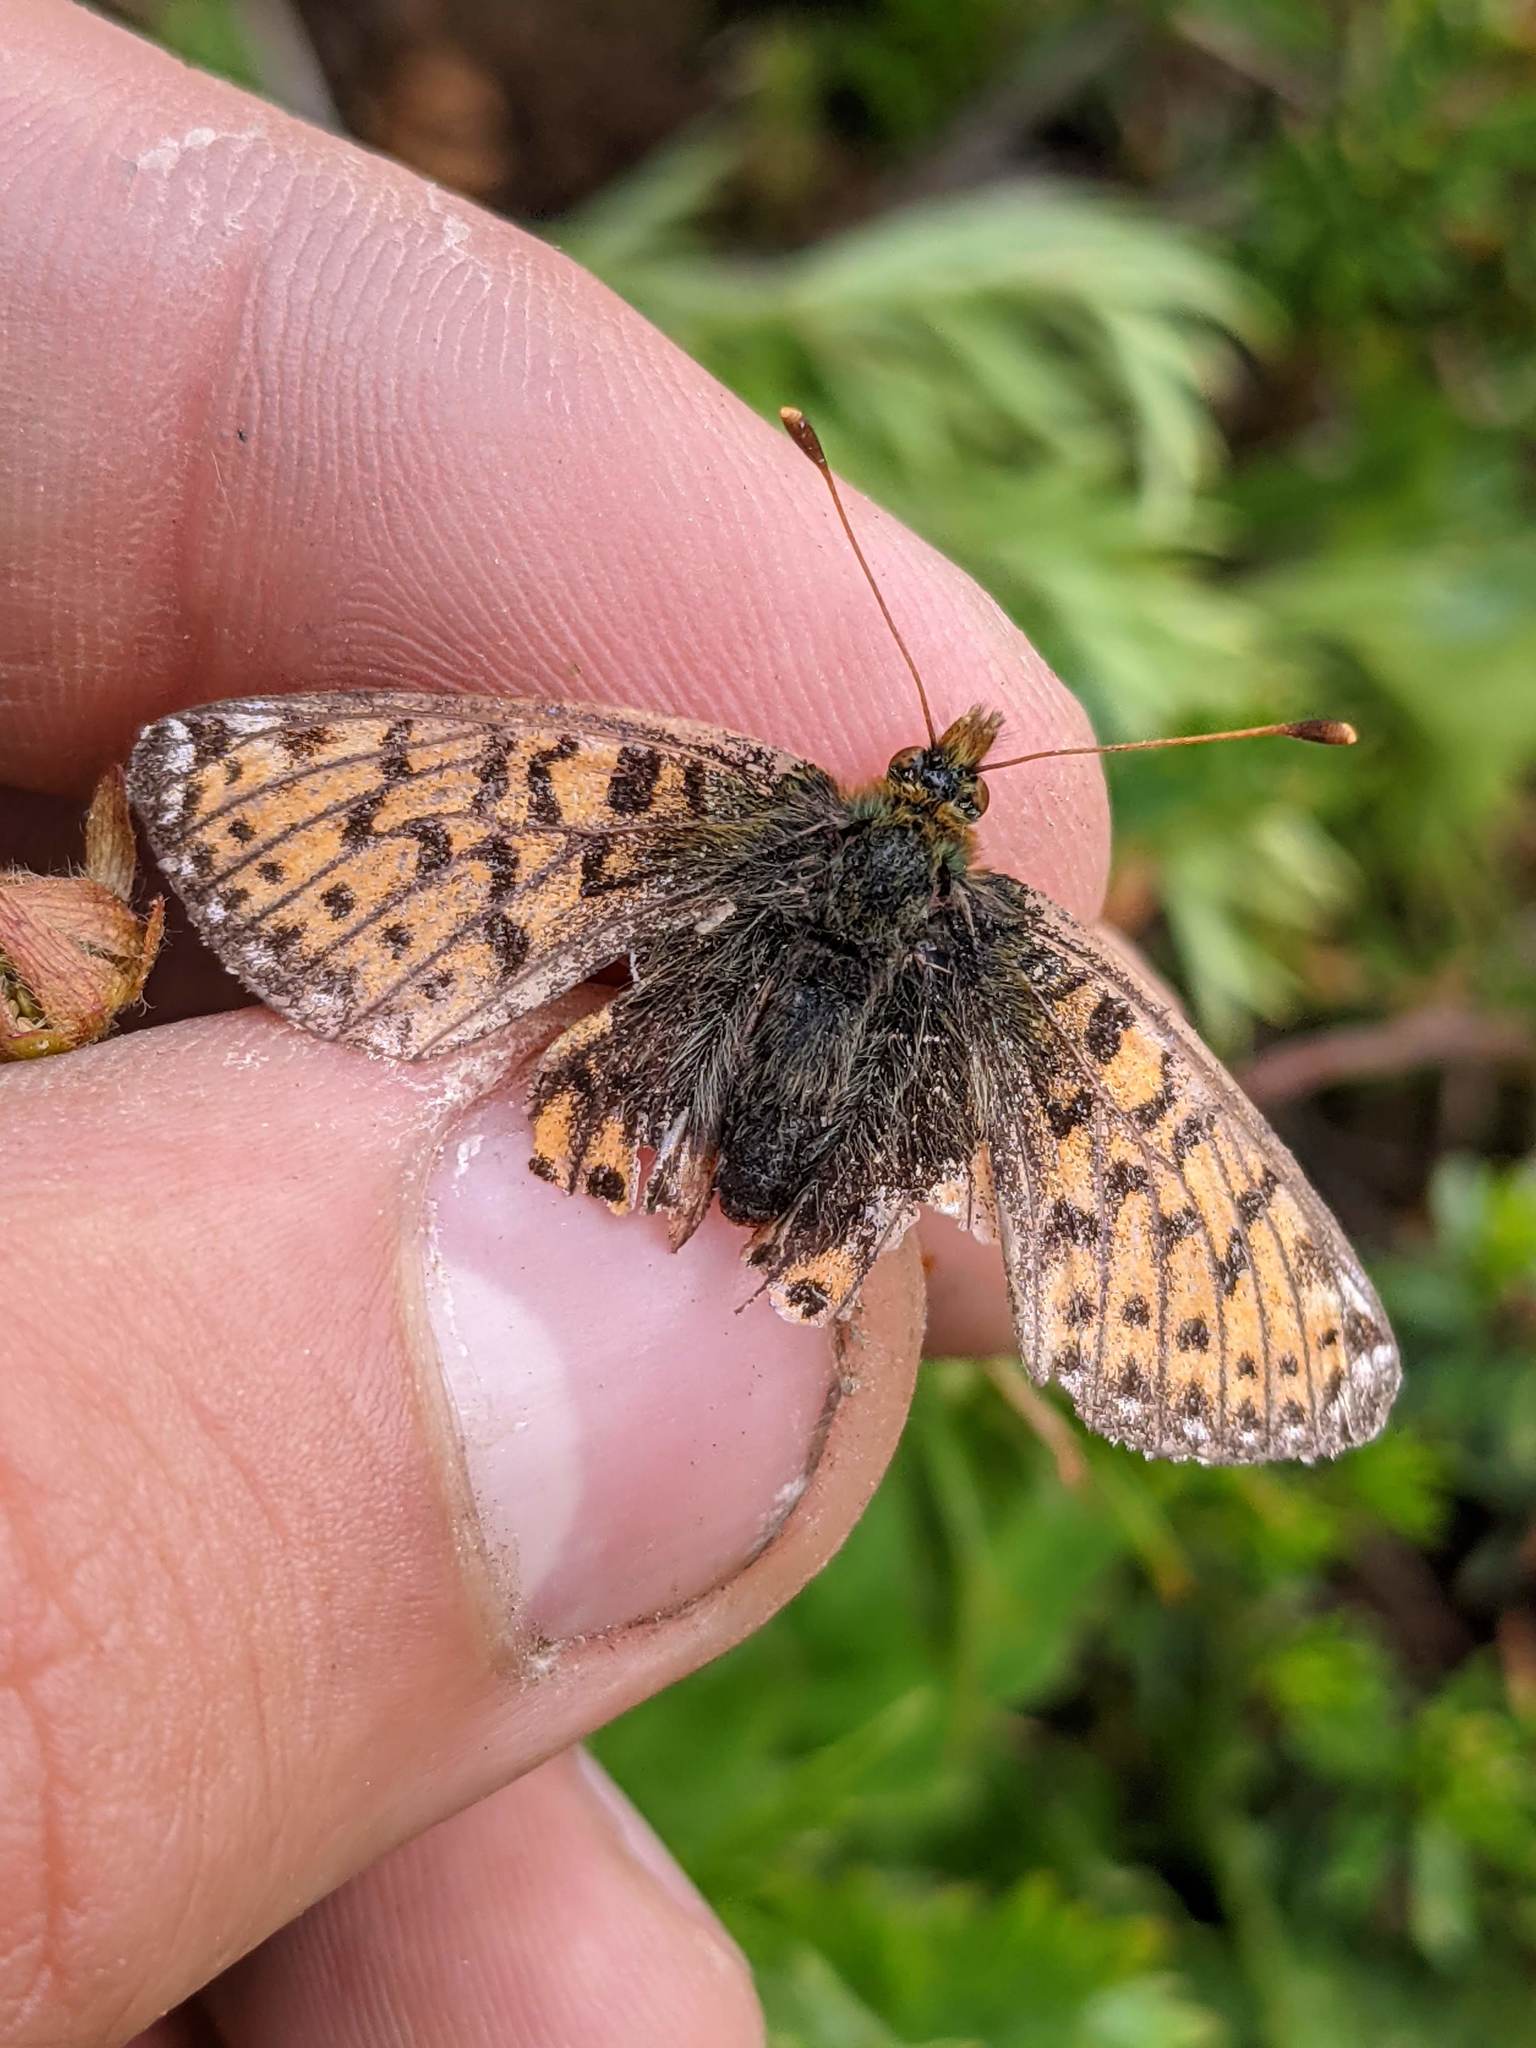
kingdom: Animalia
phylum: Arthropoda
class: Insecta
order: Lepidoptera
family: Nymphalidae
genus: Boloria
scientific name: Boloria chariclea
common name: Arctic fritillary
